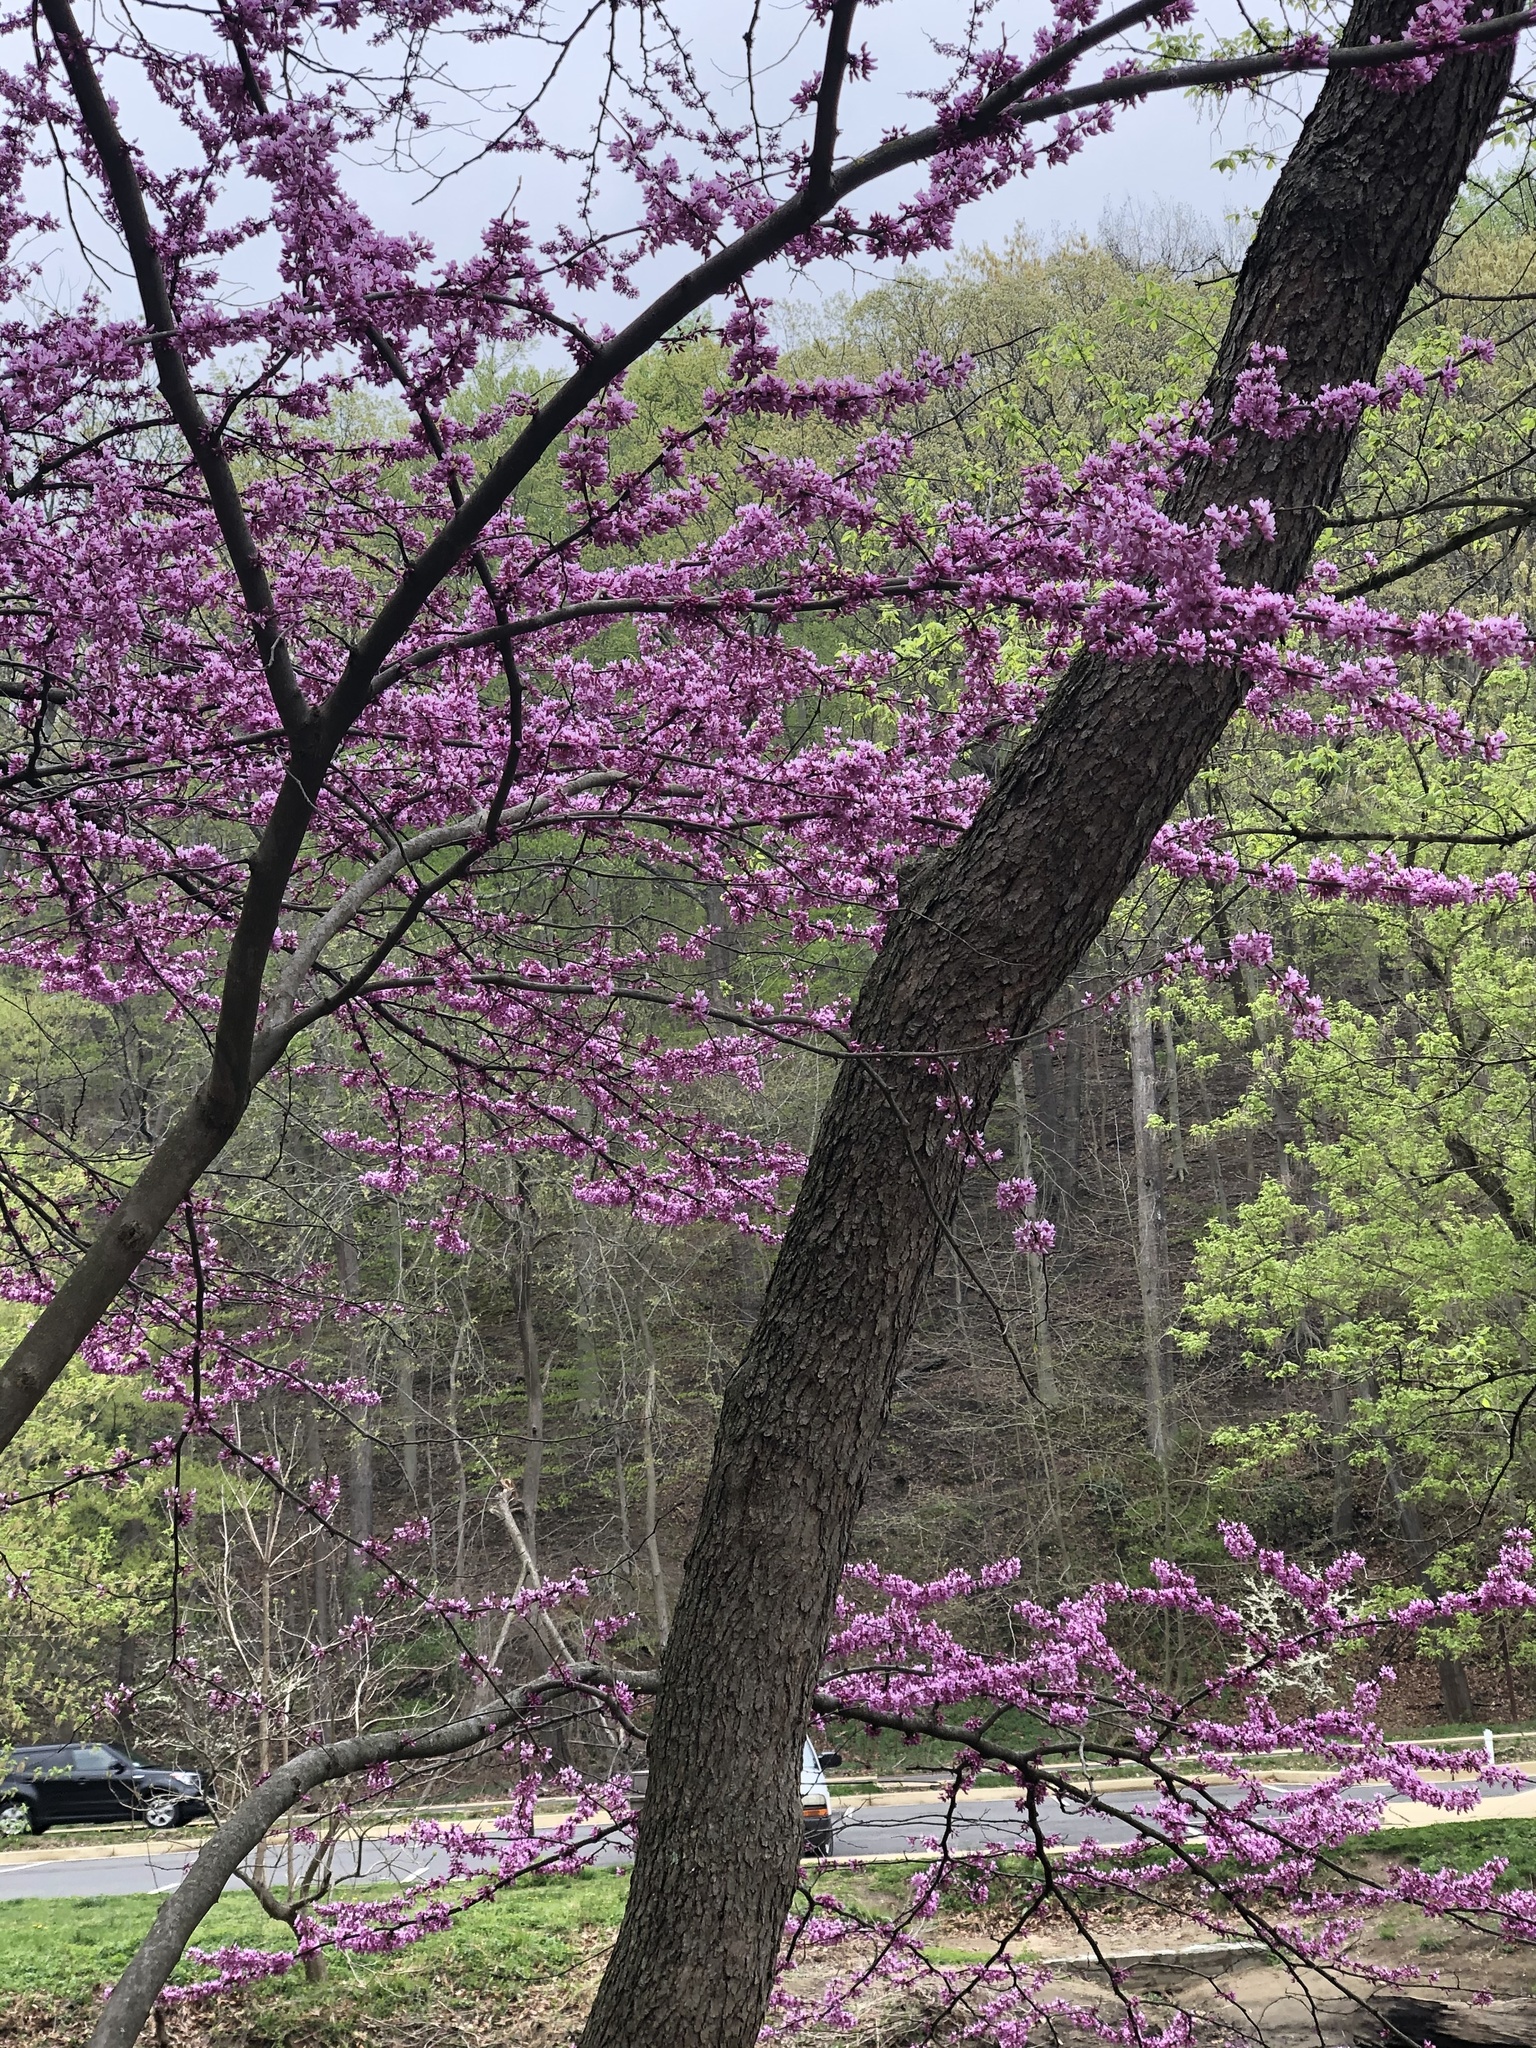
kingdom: Plantae
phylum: Tracheophyta
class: Magnoliopsida
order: Fabales
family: Fabaceae
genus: Cercis
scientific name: Cercis canadensis
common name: Eastern redbud
